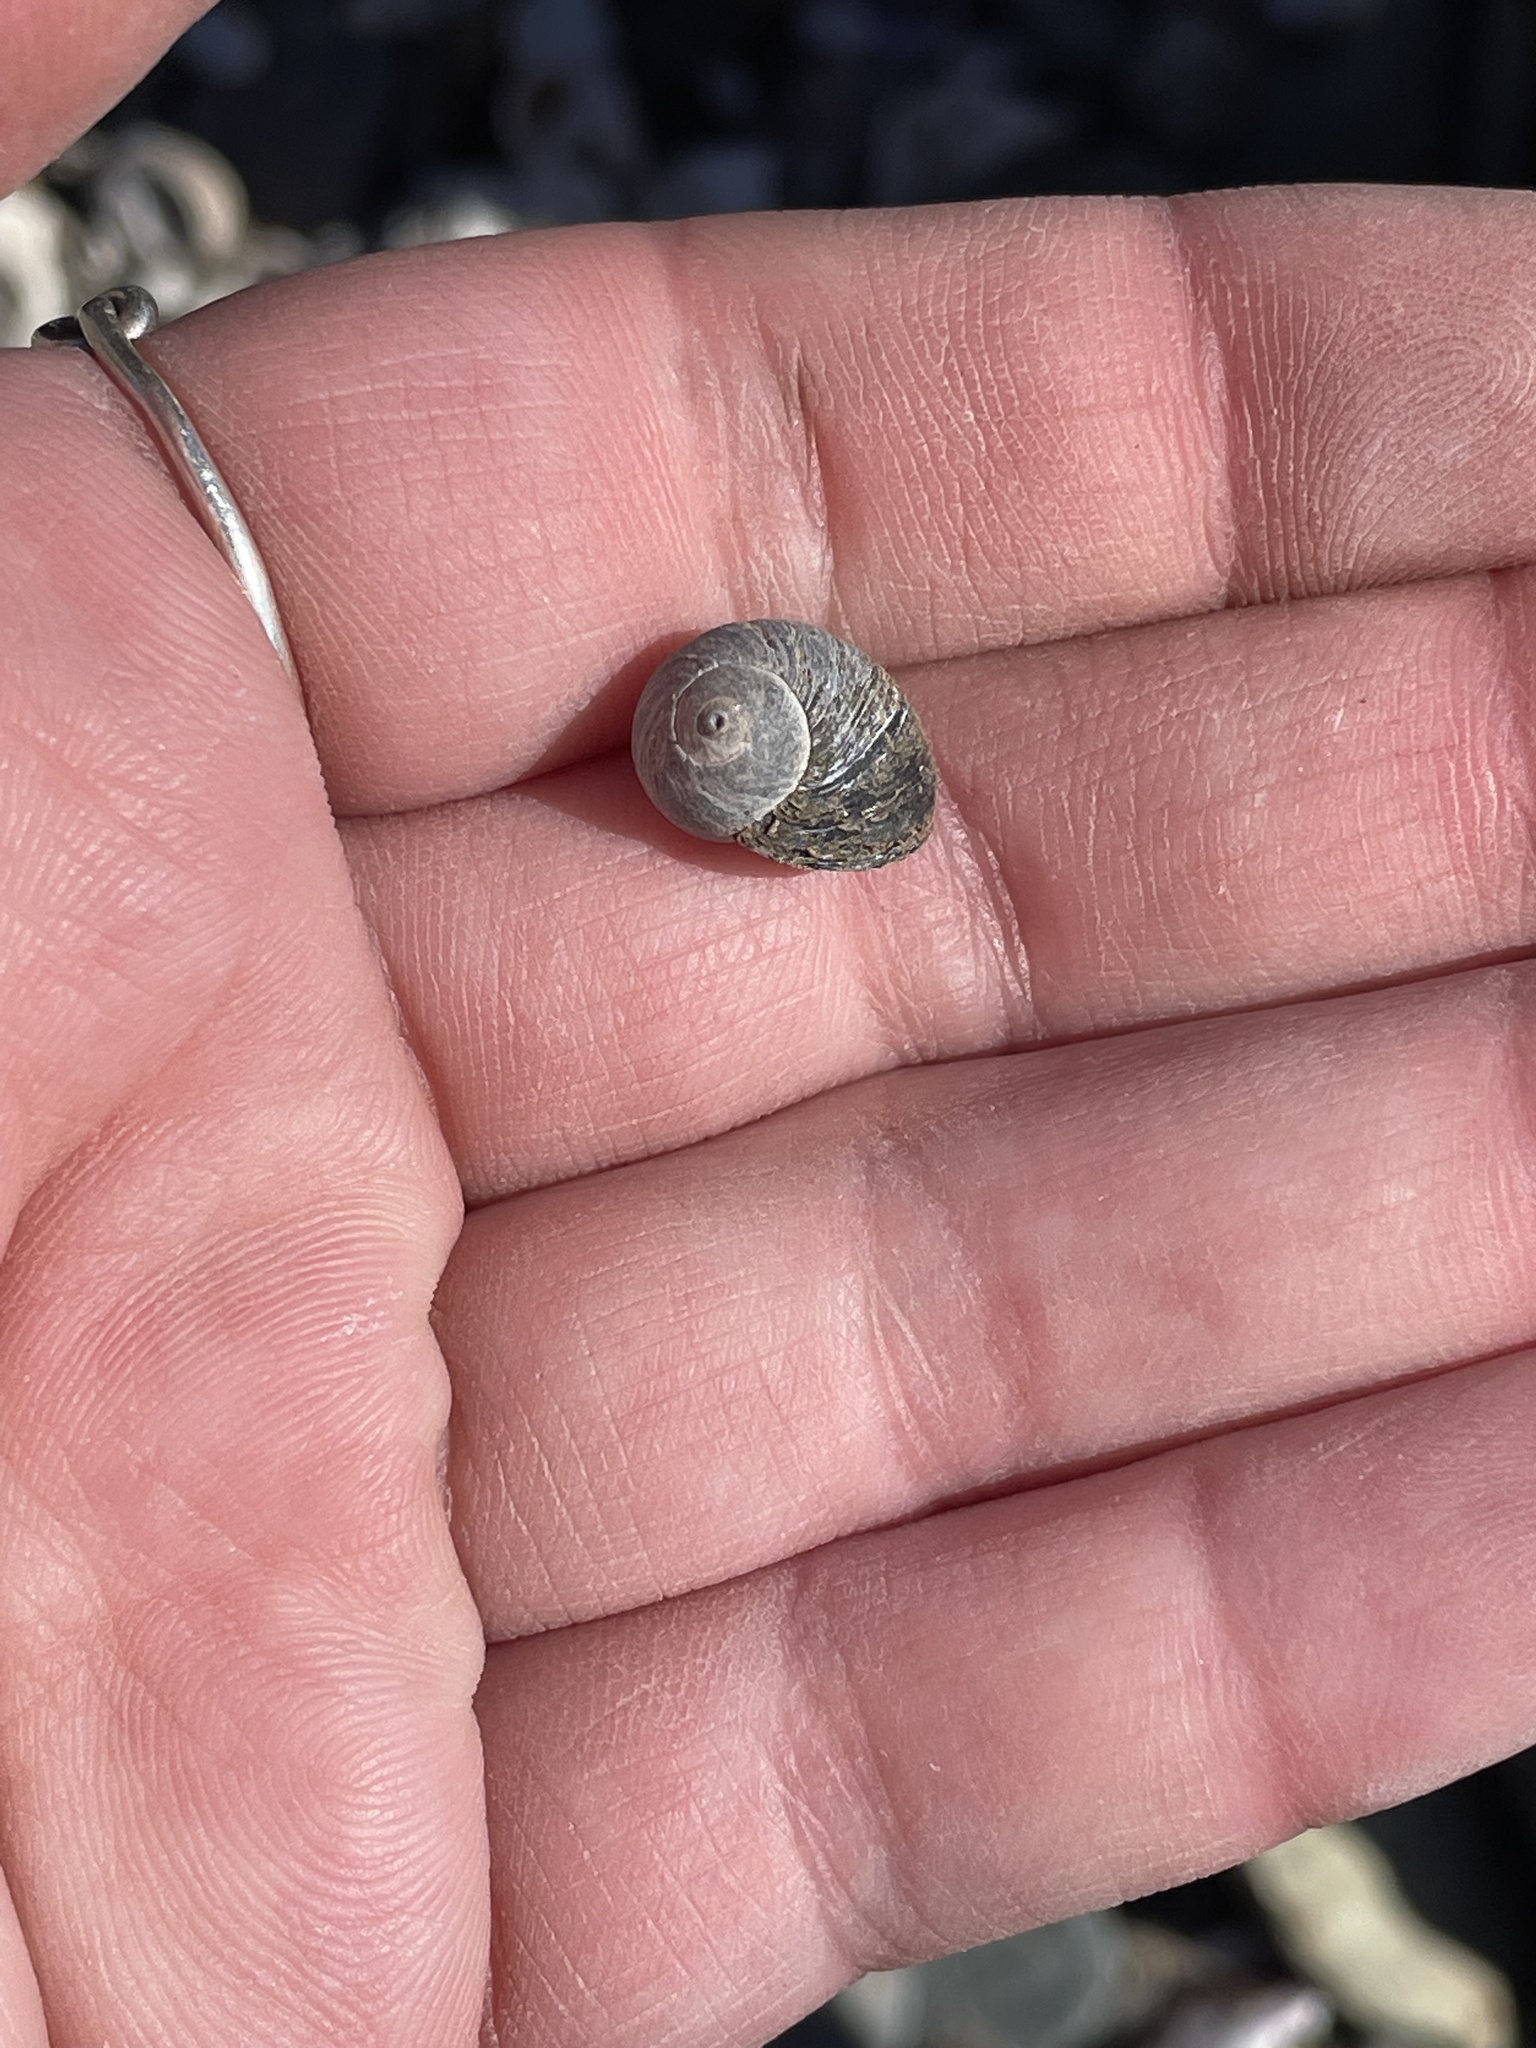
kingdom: Animalia
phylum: Mollusca
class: Gastropoda
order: Littorinimorpha
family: Littorinidae
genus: Littorina
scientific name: Littorina littorea
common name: Common periwinkle
